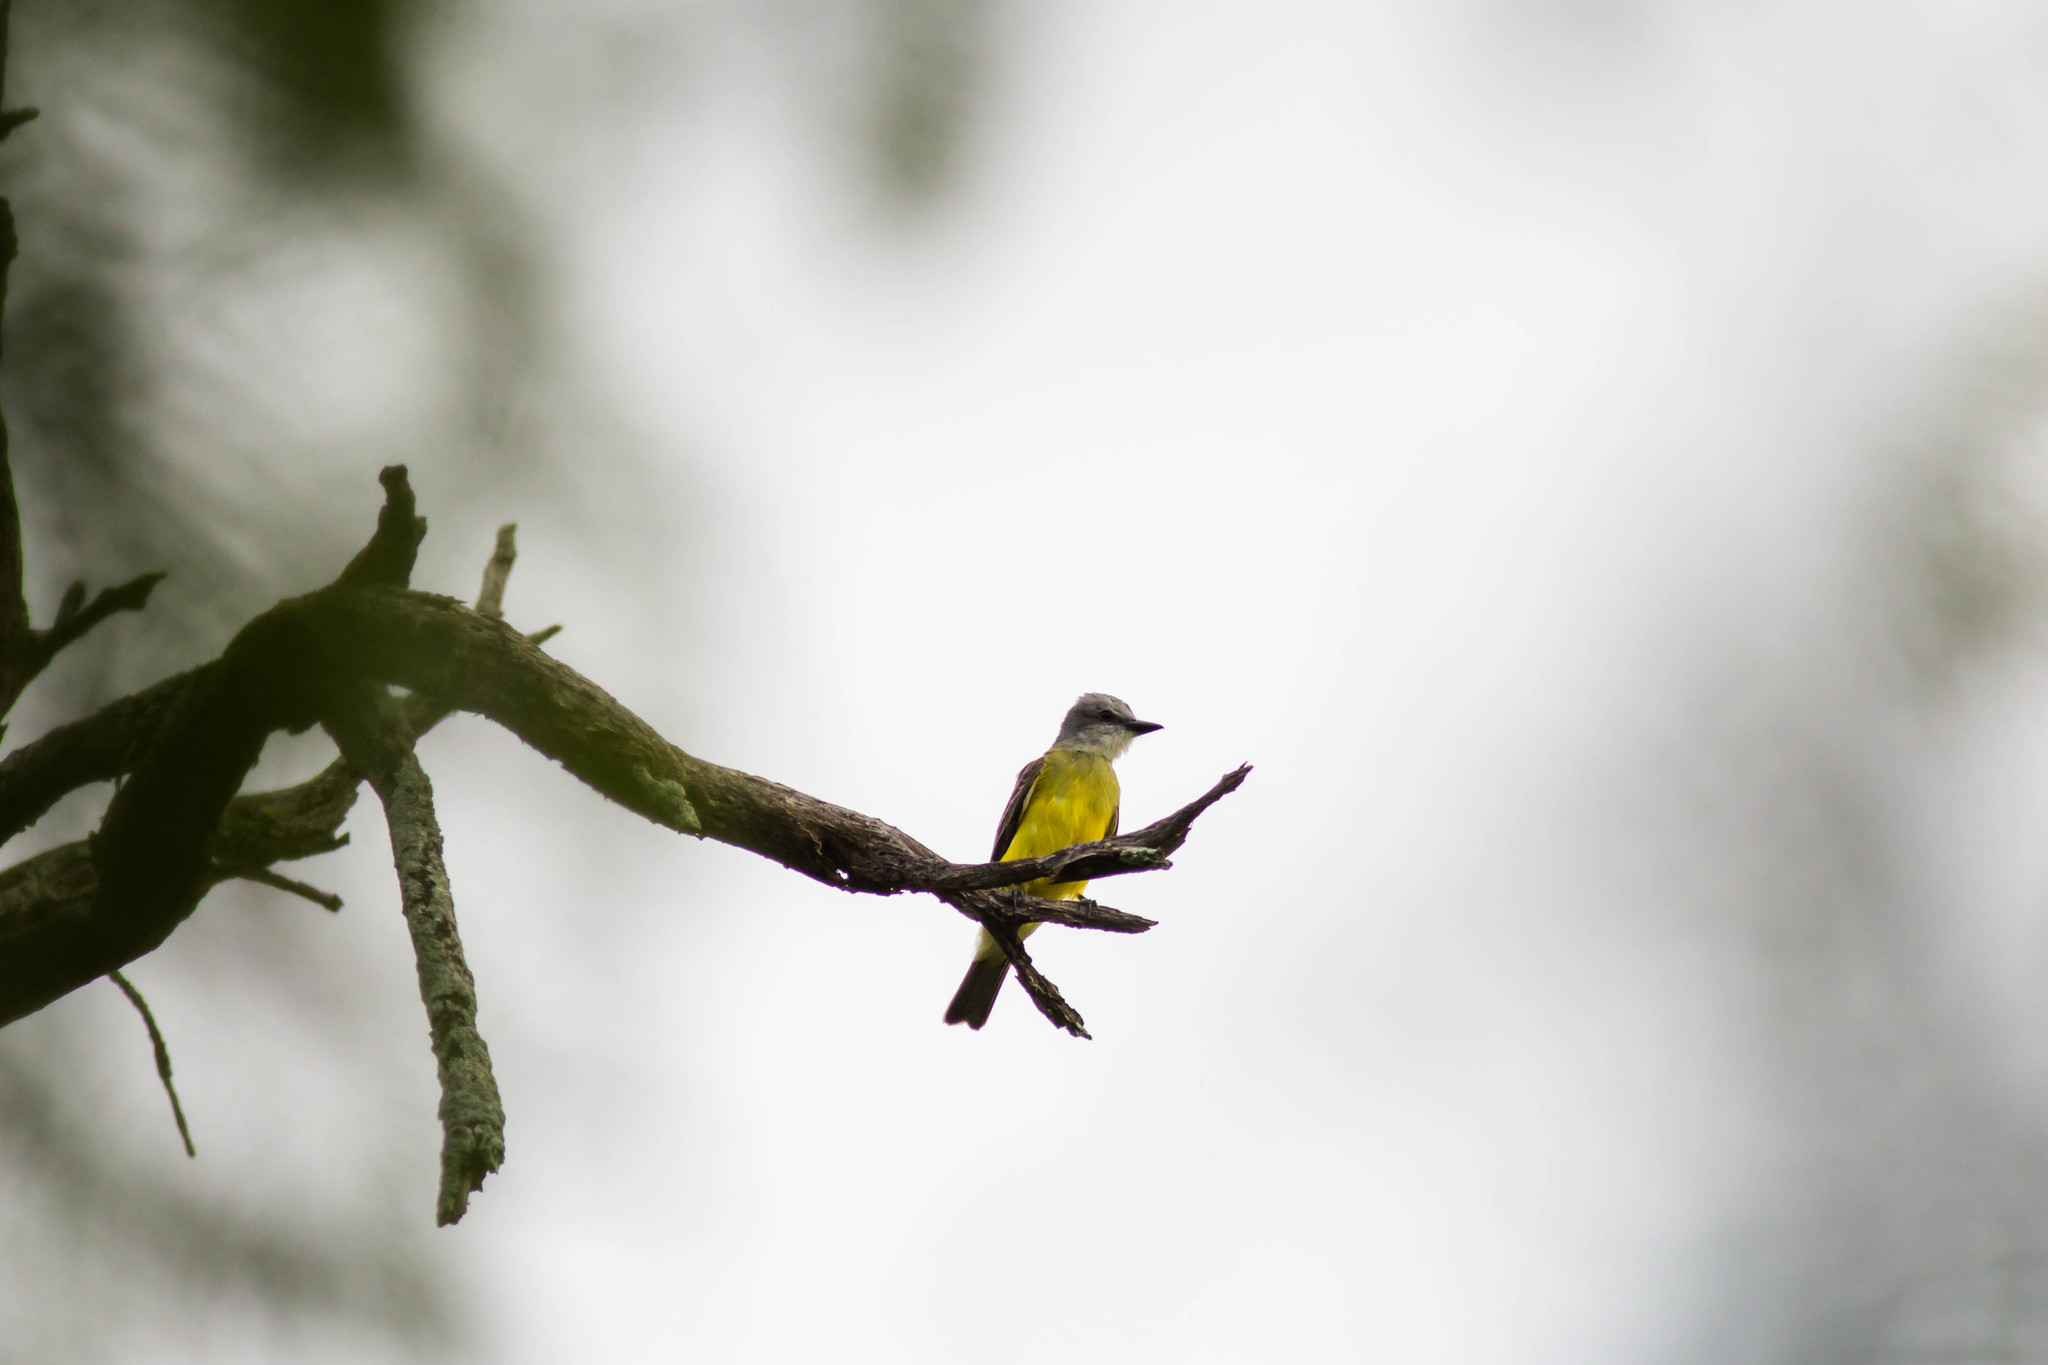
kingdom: Animalia
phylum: Chordata
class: Aves
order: Passeriformes
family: Tyrannidae
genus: Tyrannus
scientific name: Tyrannus couchii
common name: Couch's kingbird
